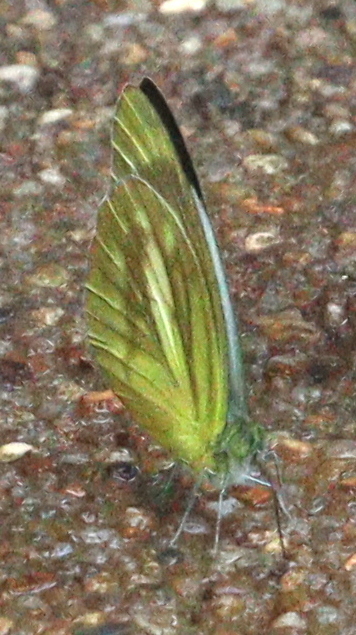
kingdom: Animalia
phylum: Arthropoda
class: Insecta
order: Lepidoptera
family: Pieridae
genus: Cepora
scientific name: Cepora nadina
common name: Lesser gull
